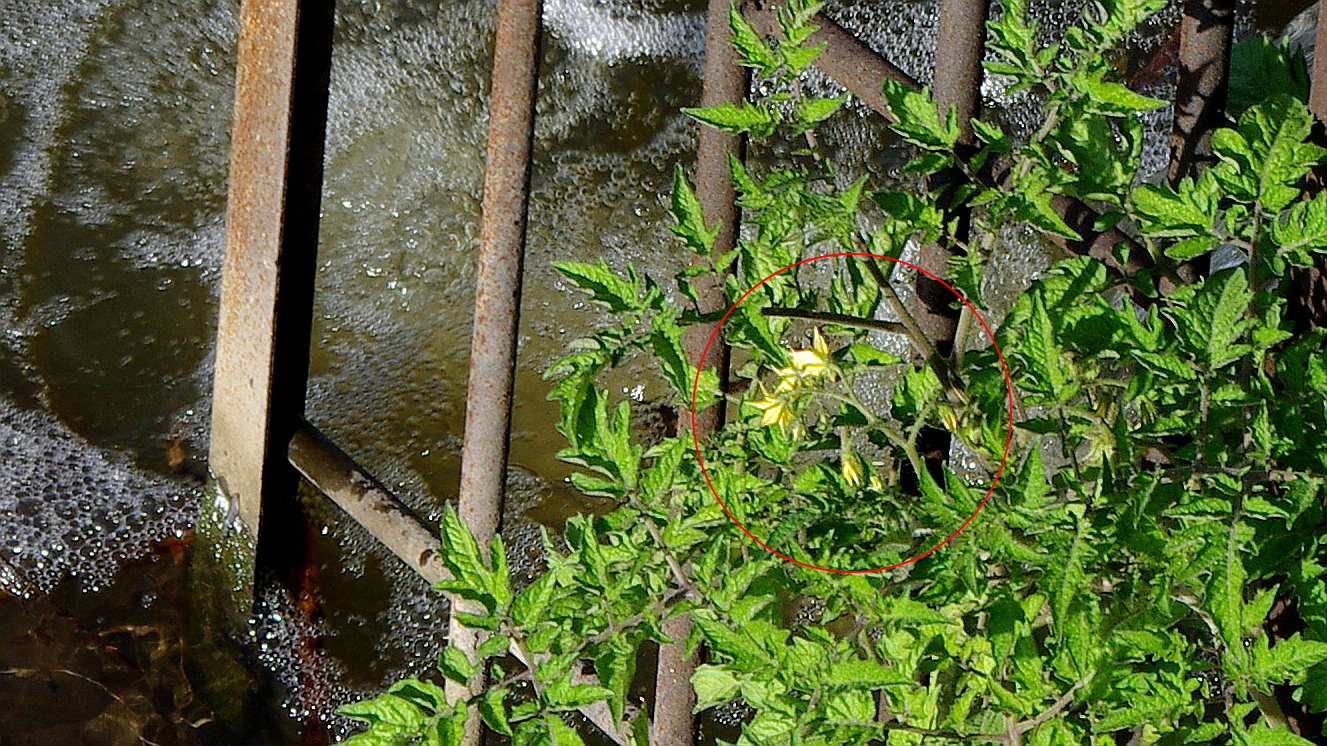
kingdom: Plantae
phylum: Tracheophyta
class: Magnoliopsida
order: Solanales
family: Solanaceae
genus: Solanum
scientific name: Solanum lycopersicum
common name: Garden tomato
